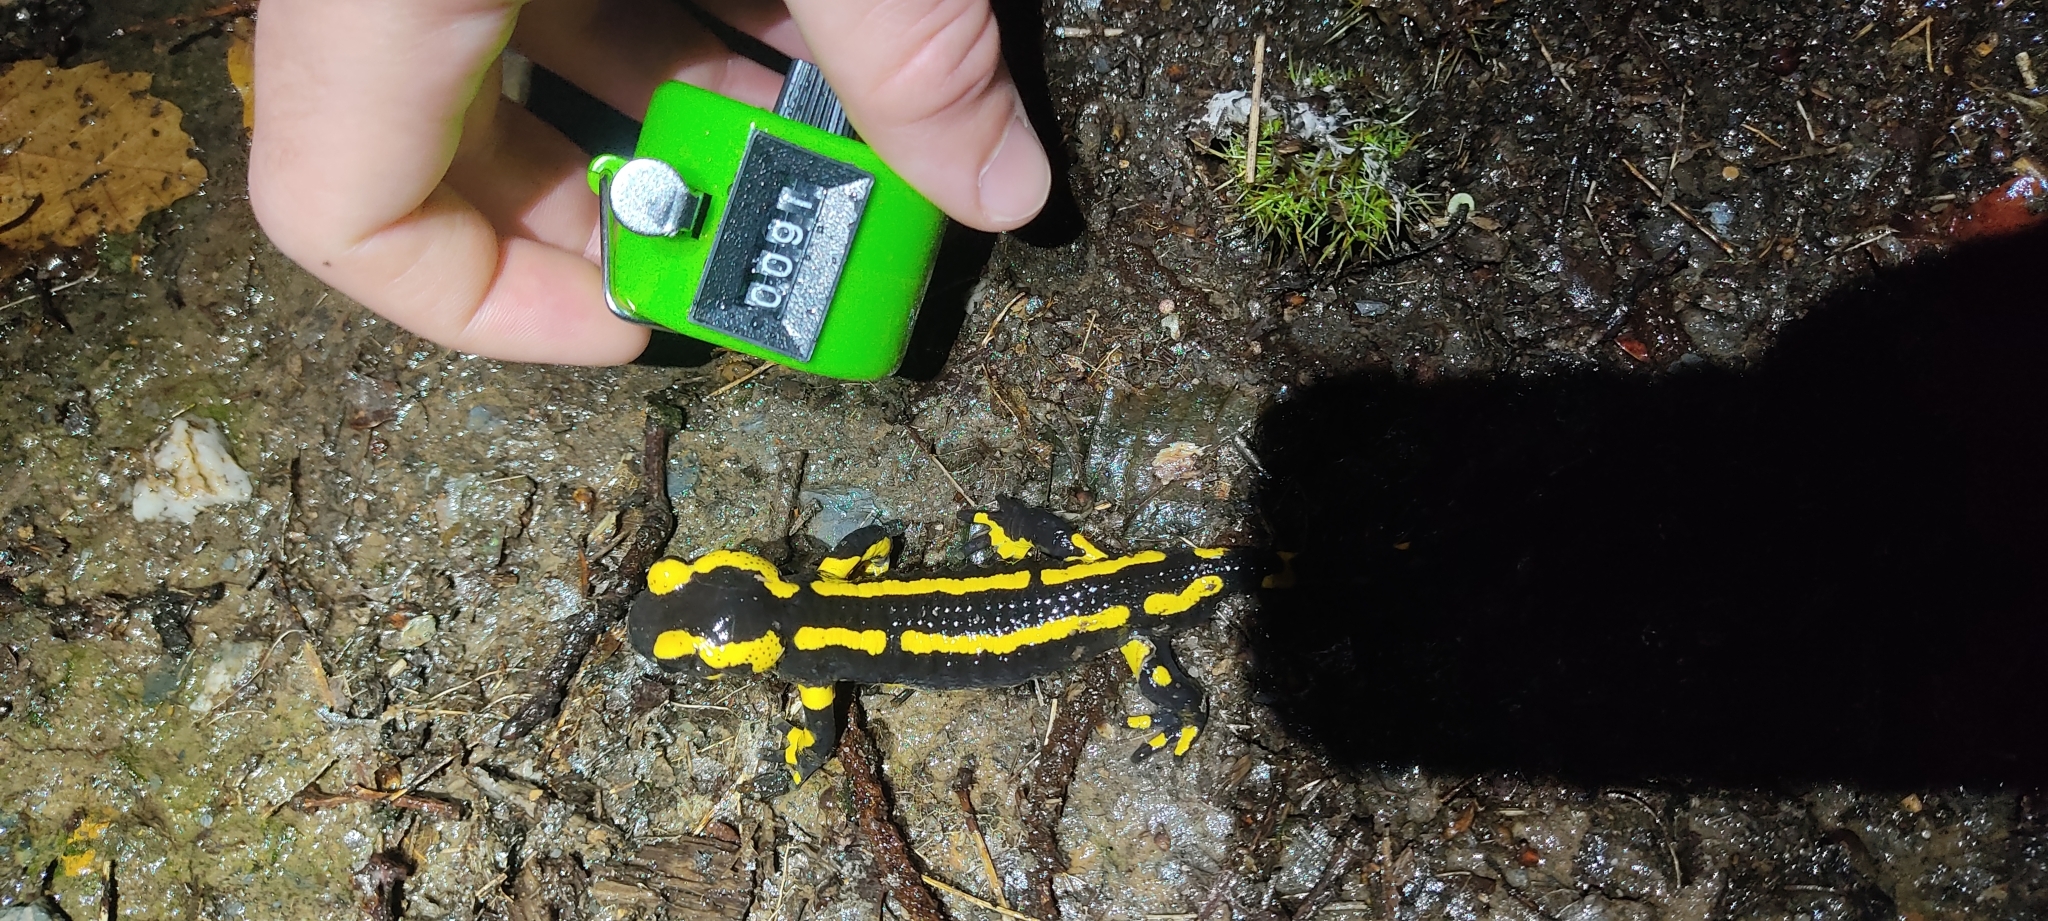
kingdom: Animalia
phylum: Chordata
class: Amphibia
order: Caudata
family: Salamandridae
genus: Salamandra
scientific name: Salamandra salamandra
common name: Fire salamander
